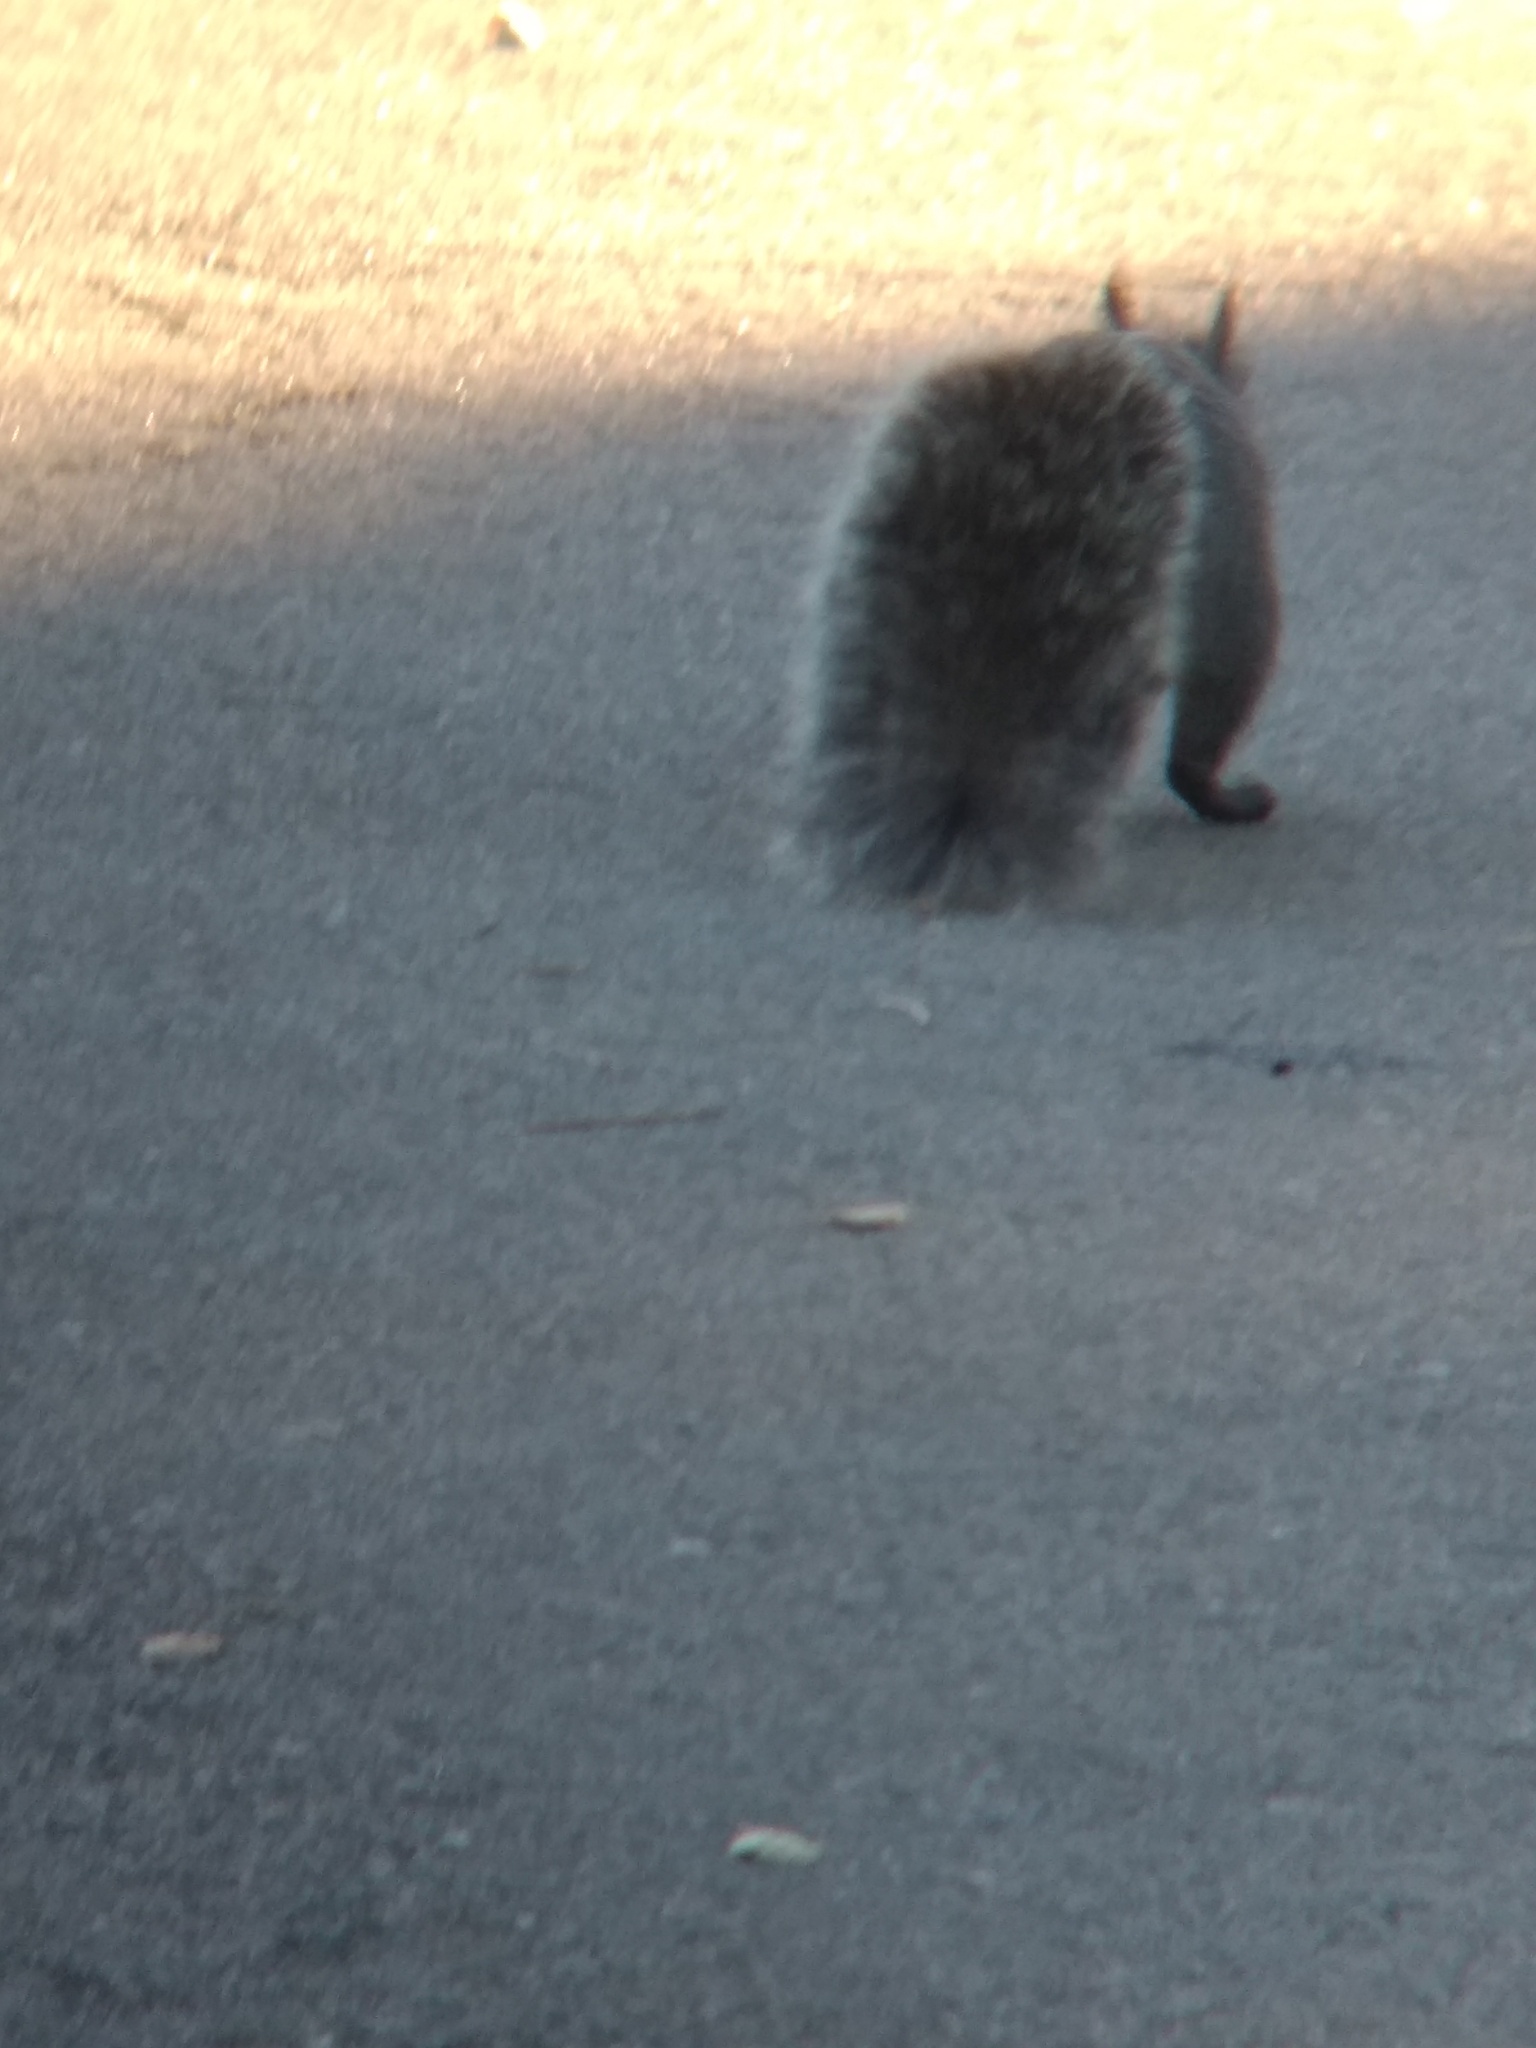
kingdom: Animalia
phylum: Chordata
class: Mammalia
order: Rodentia
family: Sciuridae
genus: Sciurus
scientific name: Sciurus griseus
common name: Western gray squirrel
